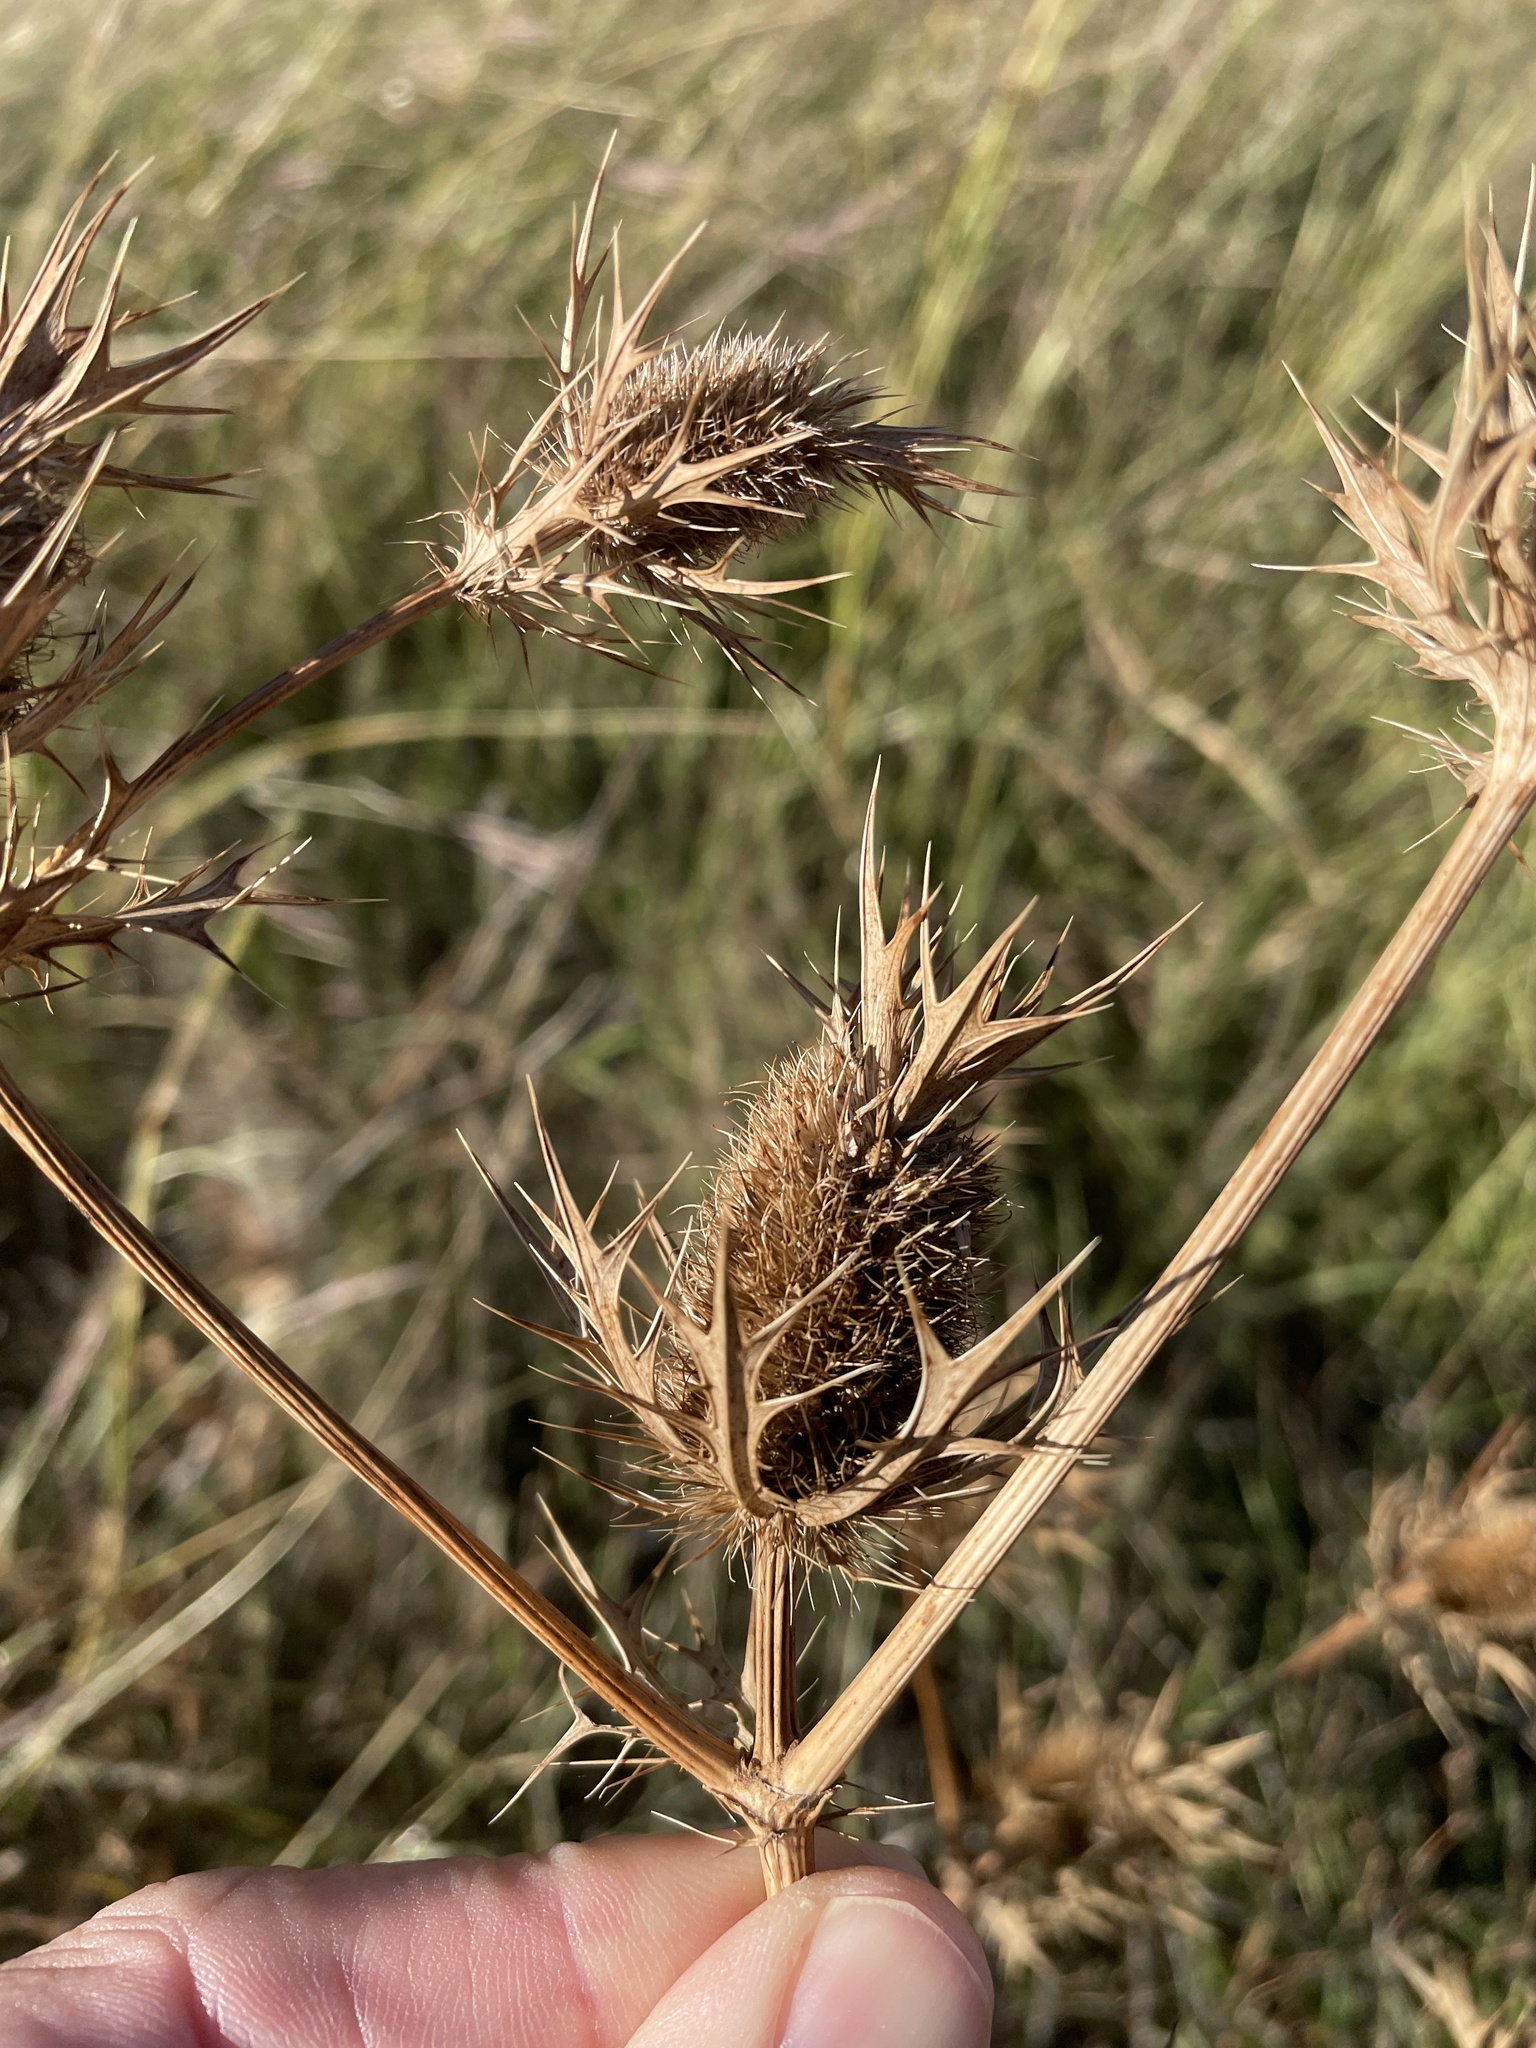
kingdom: Plantae
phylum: Tracheophyta
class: Magnoliopsida
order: Apiales
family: Apiaceae
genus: Eryngium
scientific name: Eryngium leavenworthii
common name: Leavenworth's eryngo
